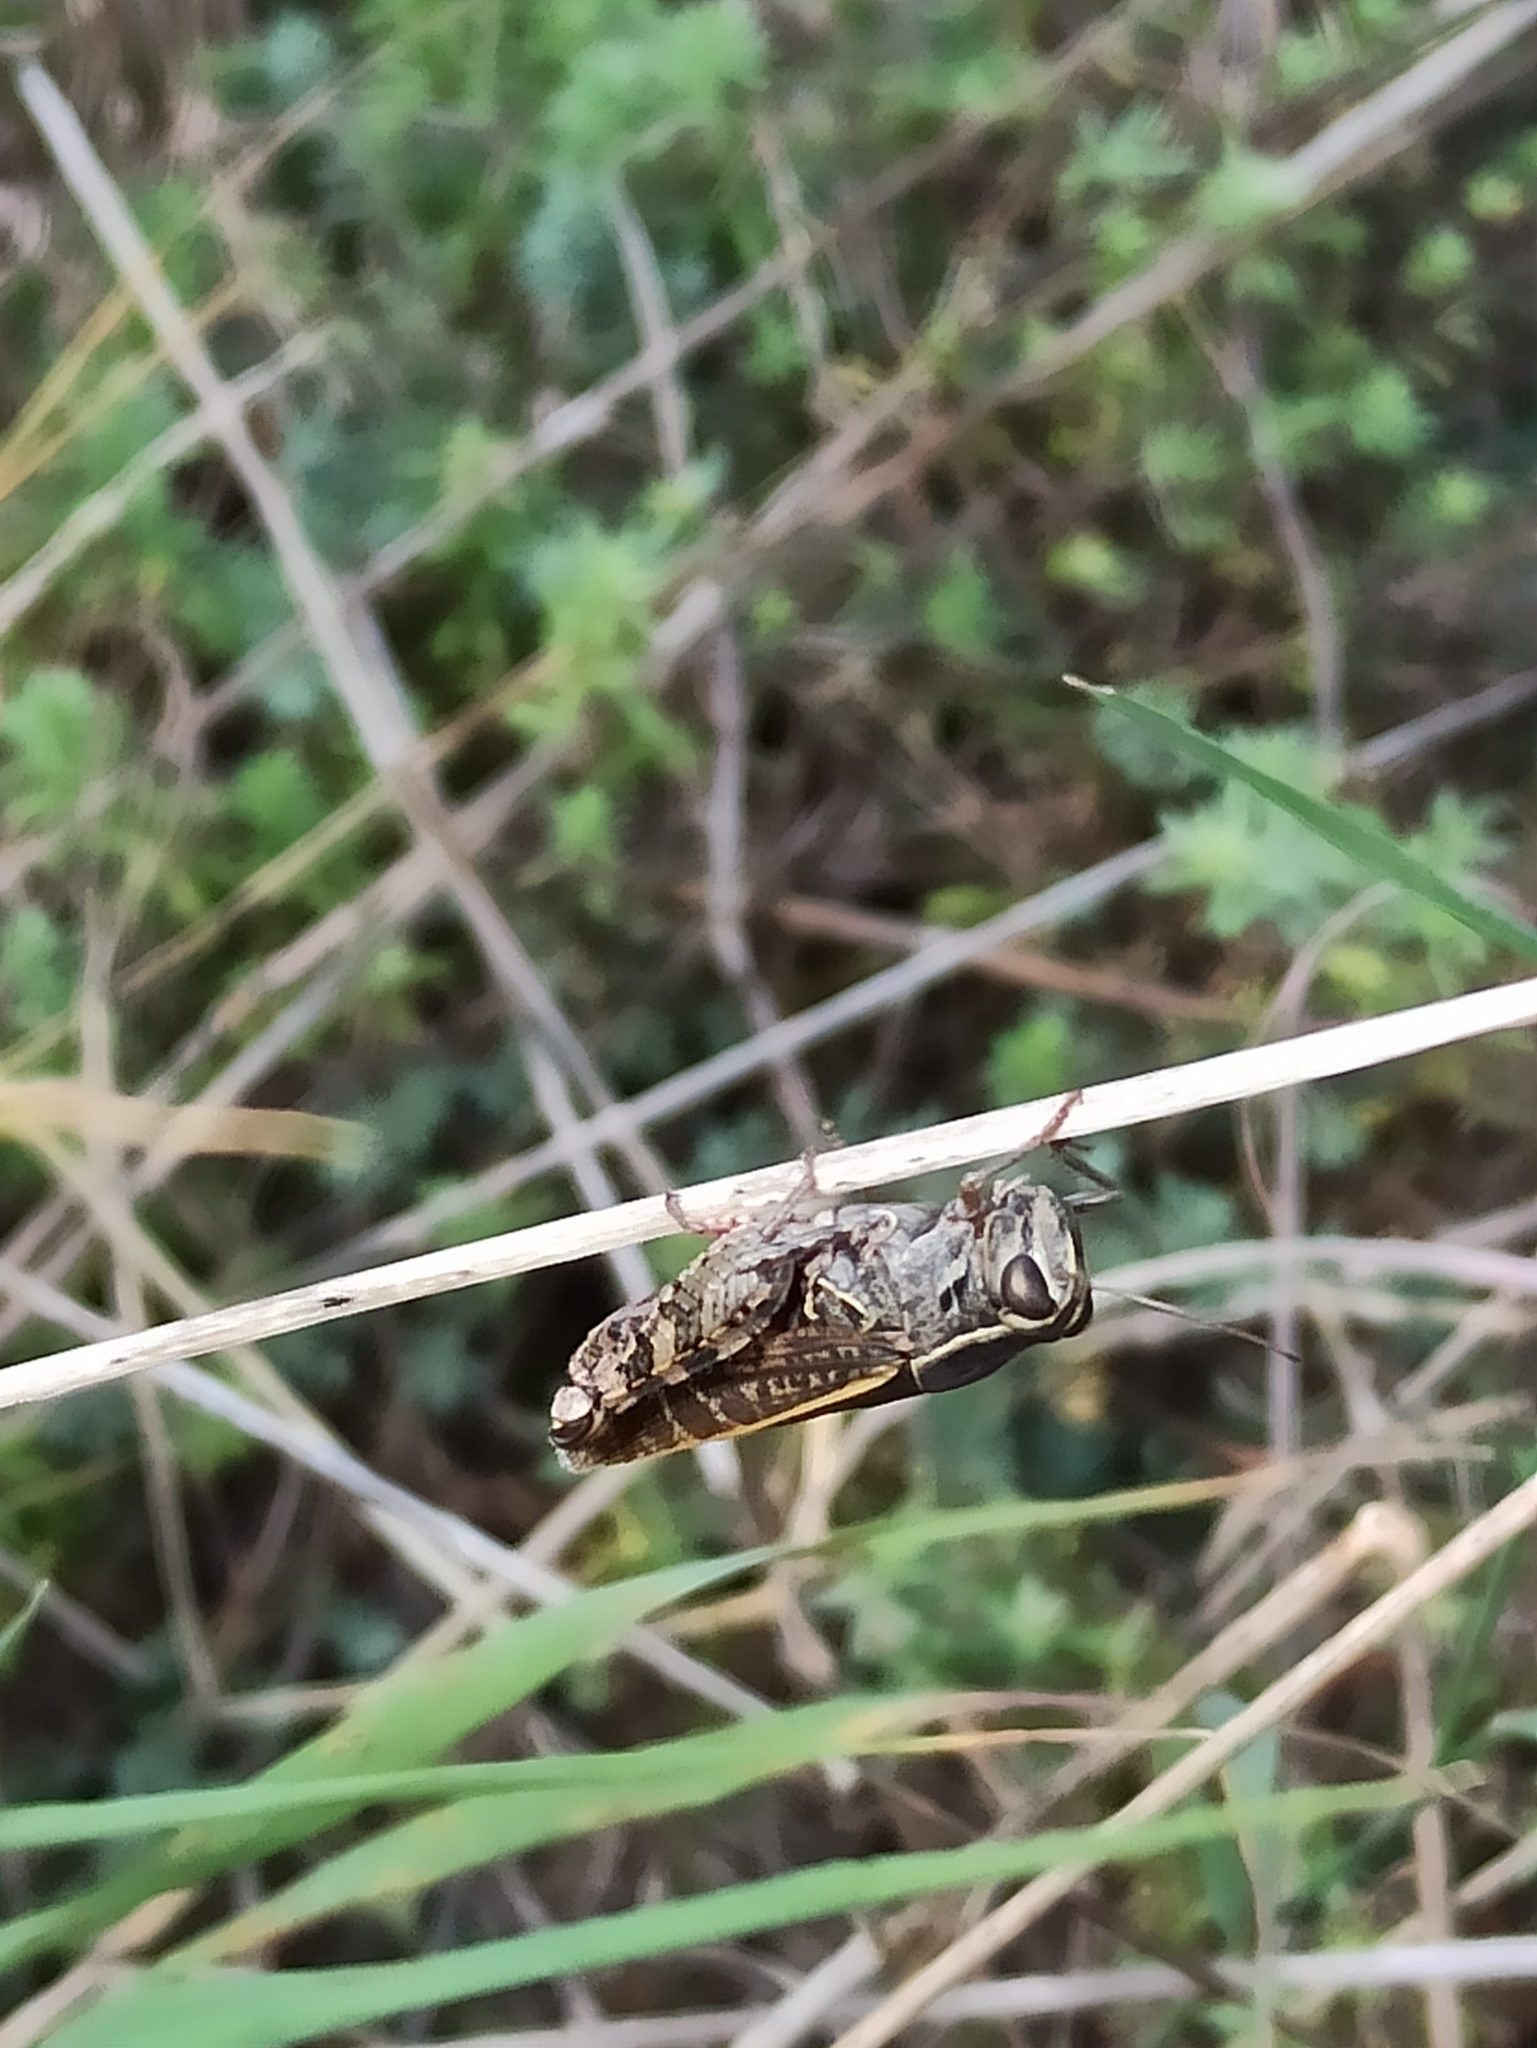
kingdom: Animalia
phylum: Arthropoda
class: Insecta
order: Orthoptera
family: Acrididae
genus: Calliptamus
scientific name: Calliptamus italicus
